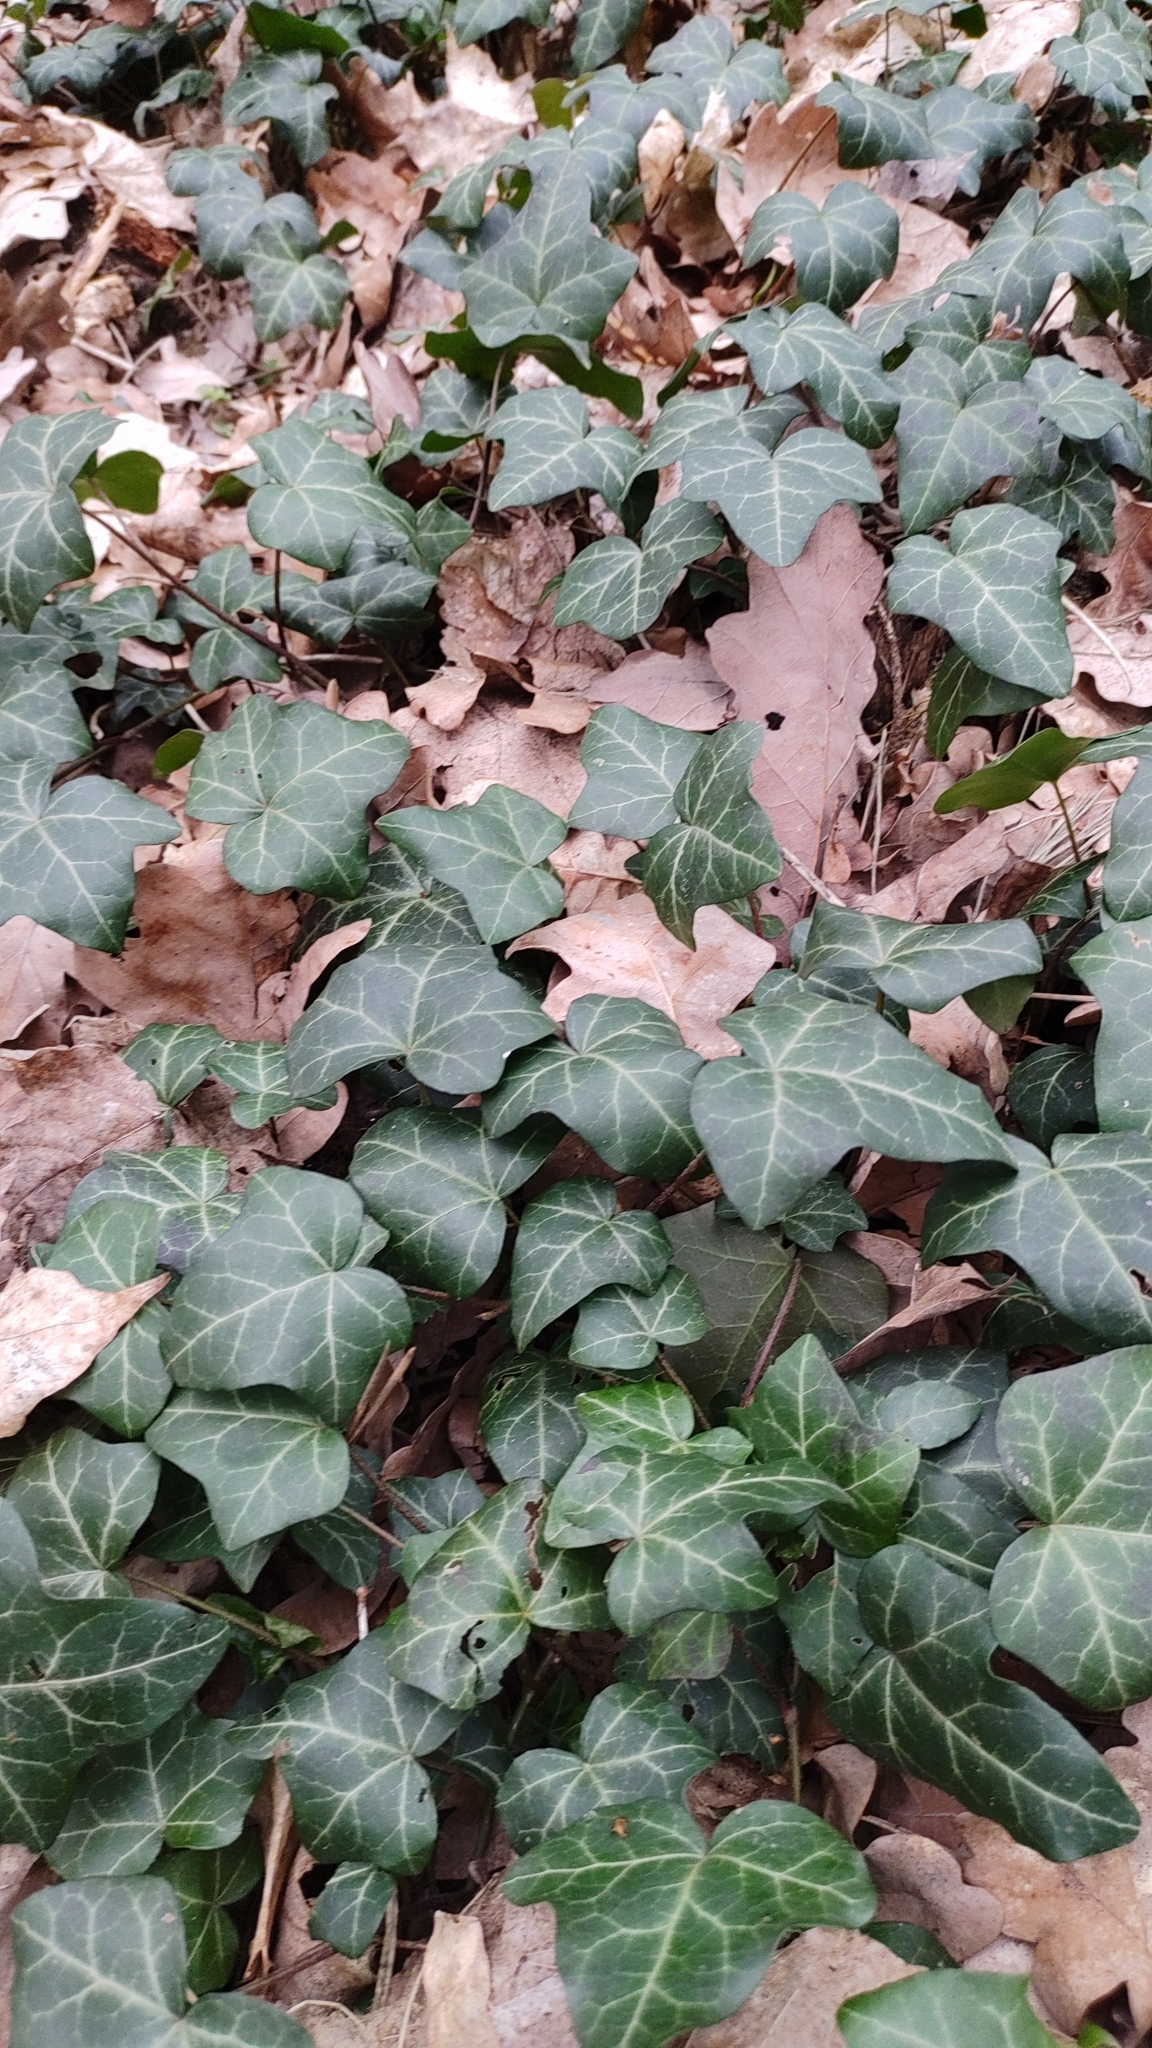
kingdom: Plantae
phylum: Tracheophyta
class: Magnoliopsida
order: Apiales
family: Araliaceae
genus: Hedera
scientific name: Hedera helix
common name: Ivy
